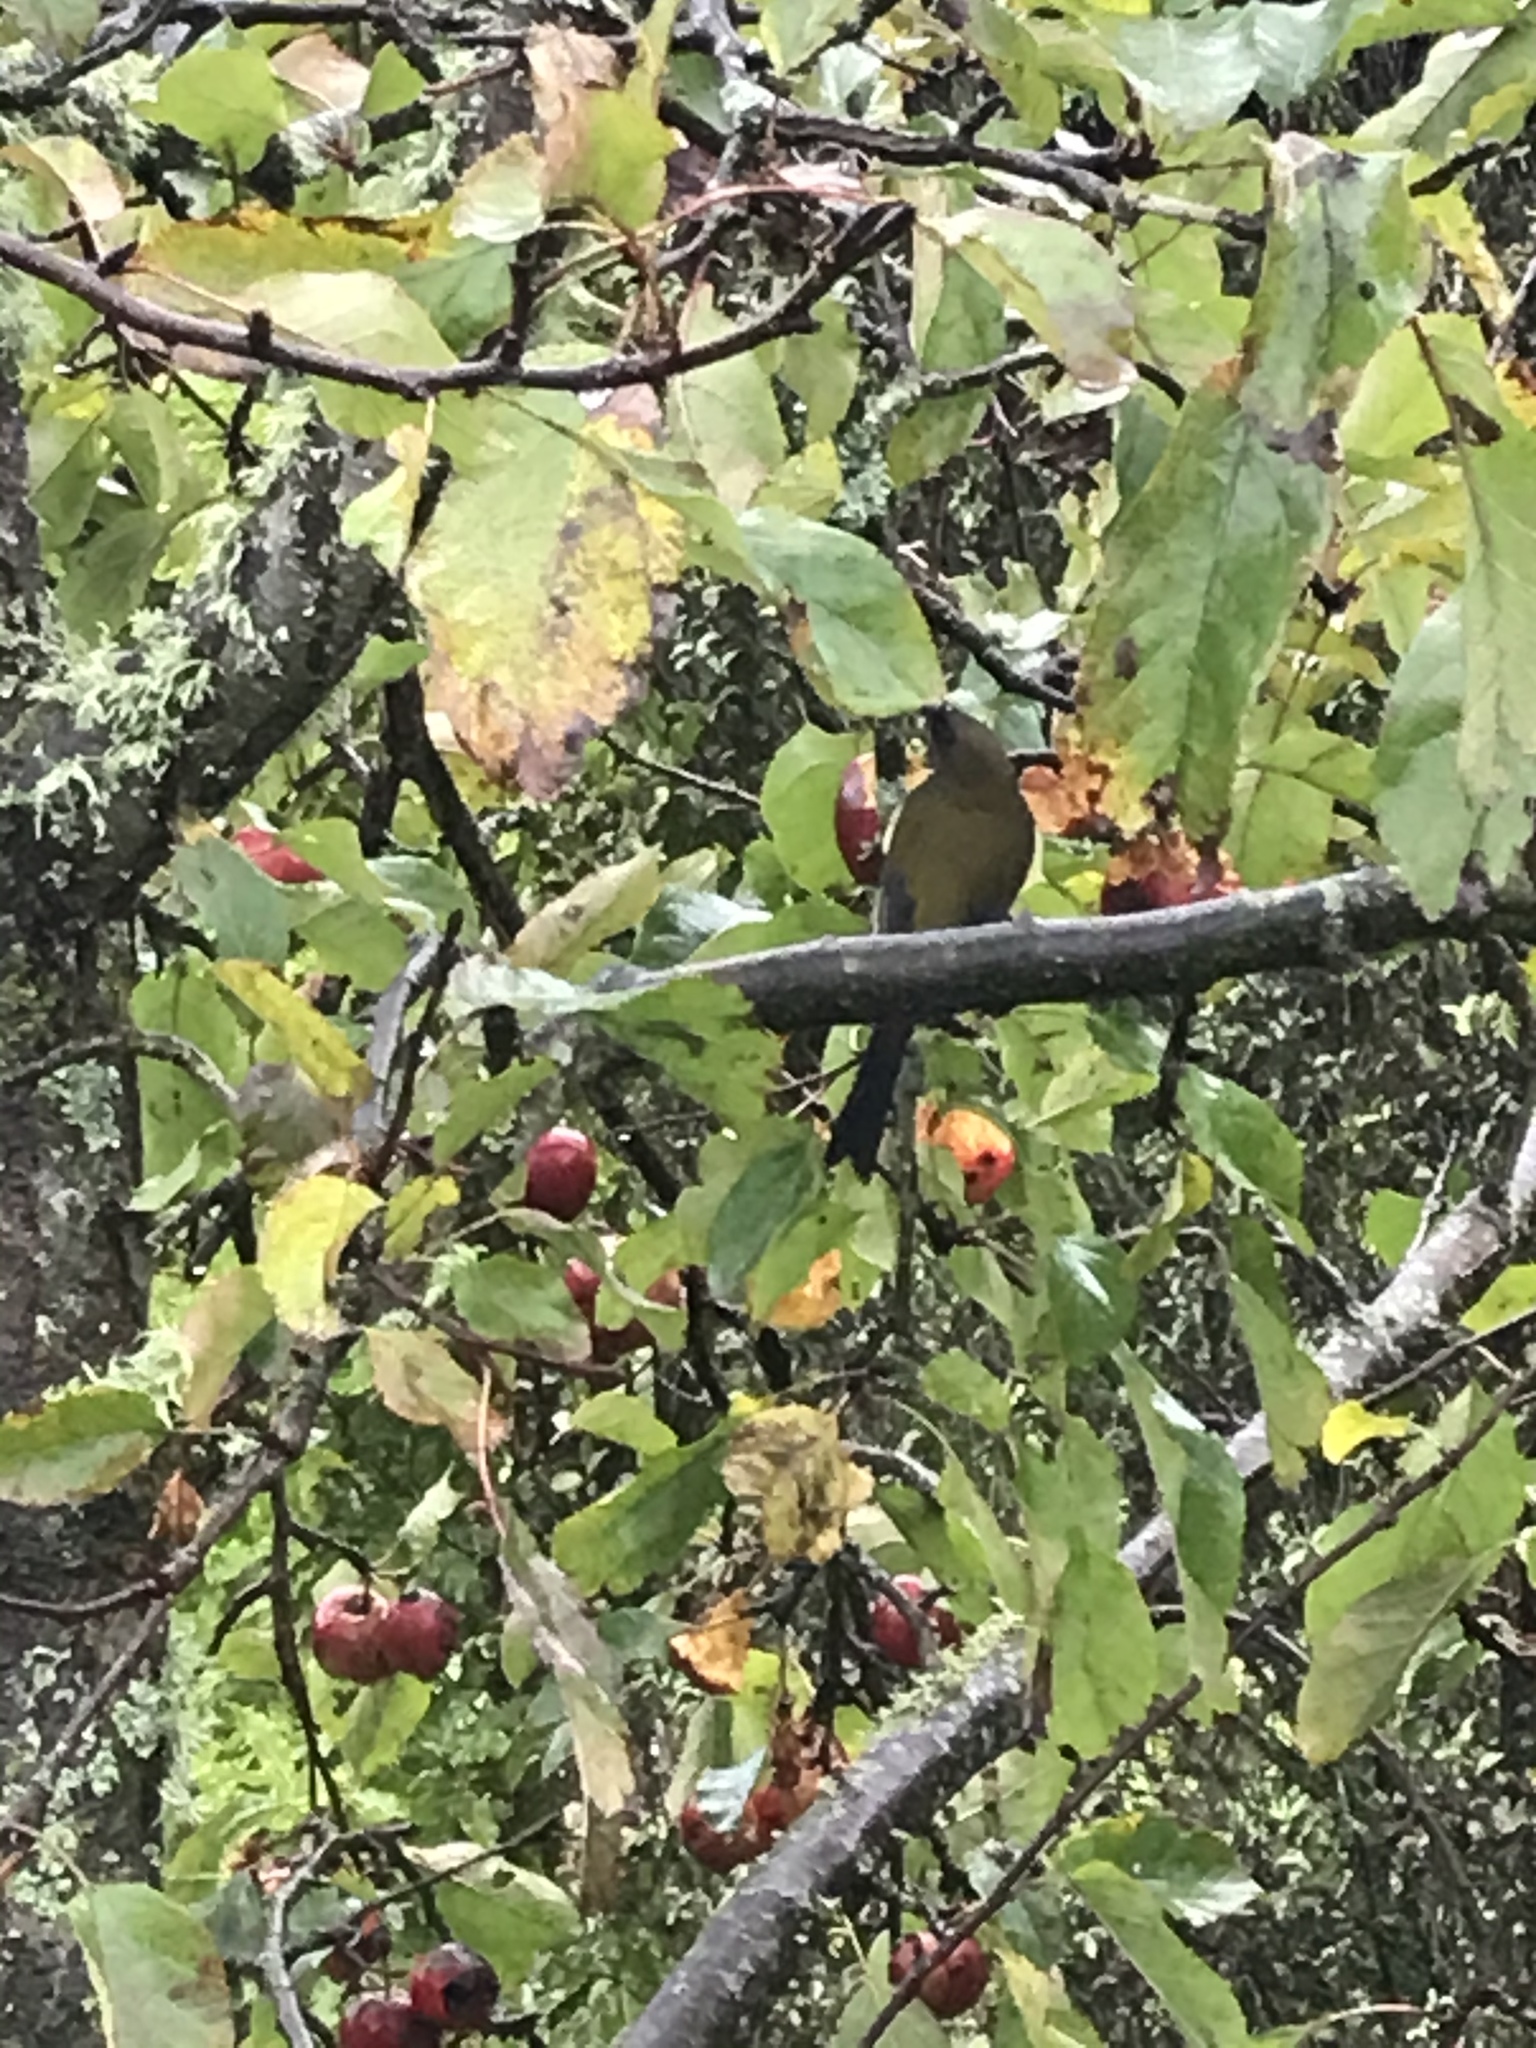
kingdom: Animalia
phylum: Chordata
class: Aves
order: Passeriformes
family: Meliphagidae
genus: Anthornis
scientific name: Anthornis melanura
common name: New zealand bellbird
